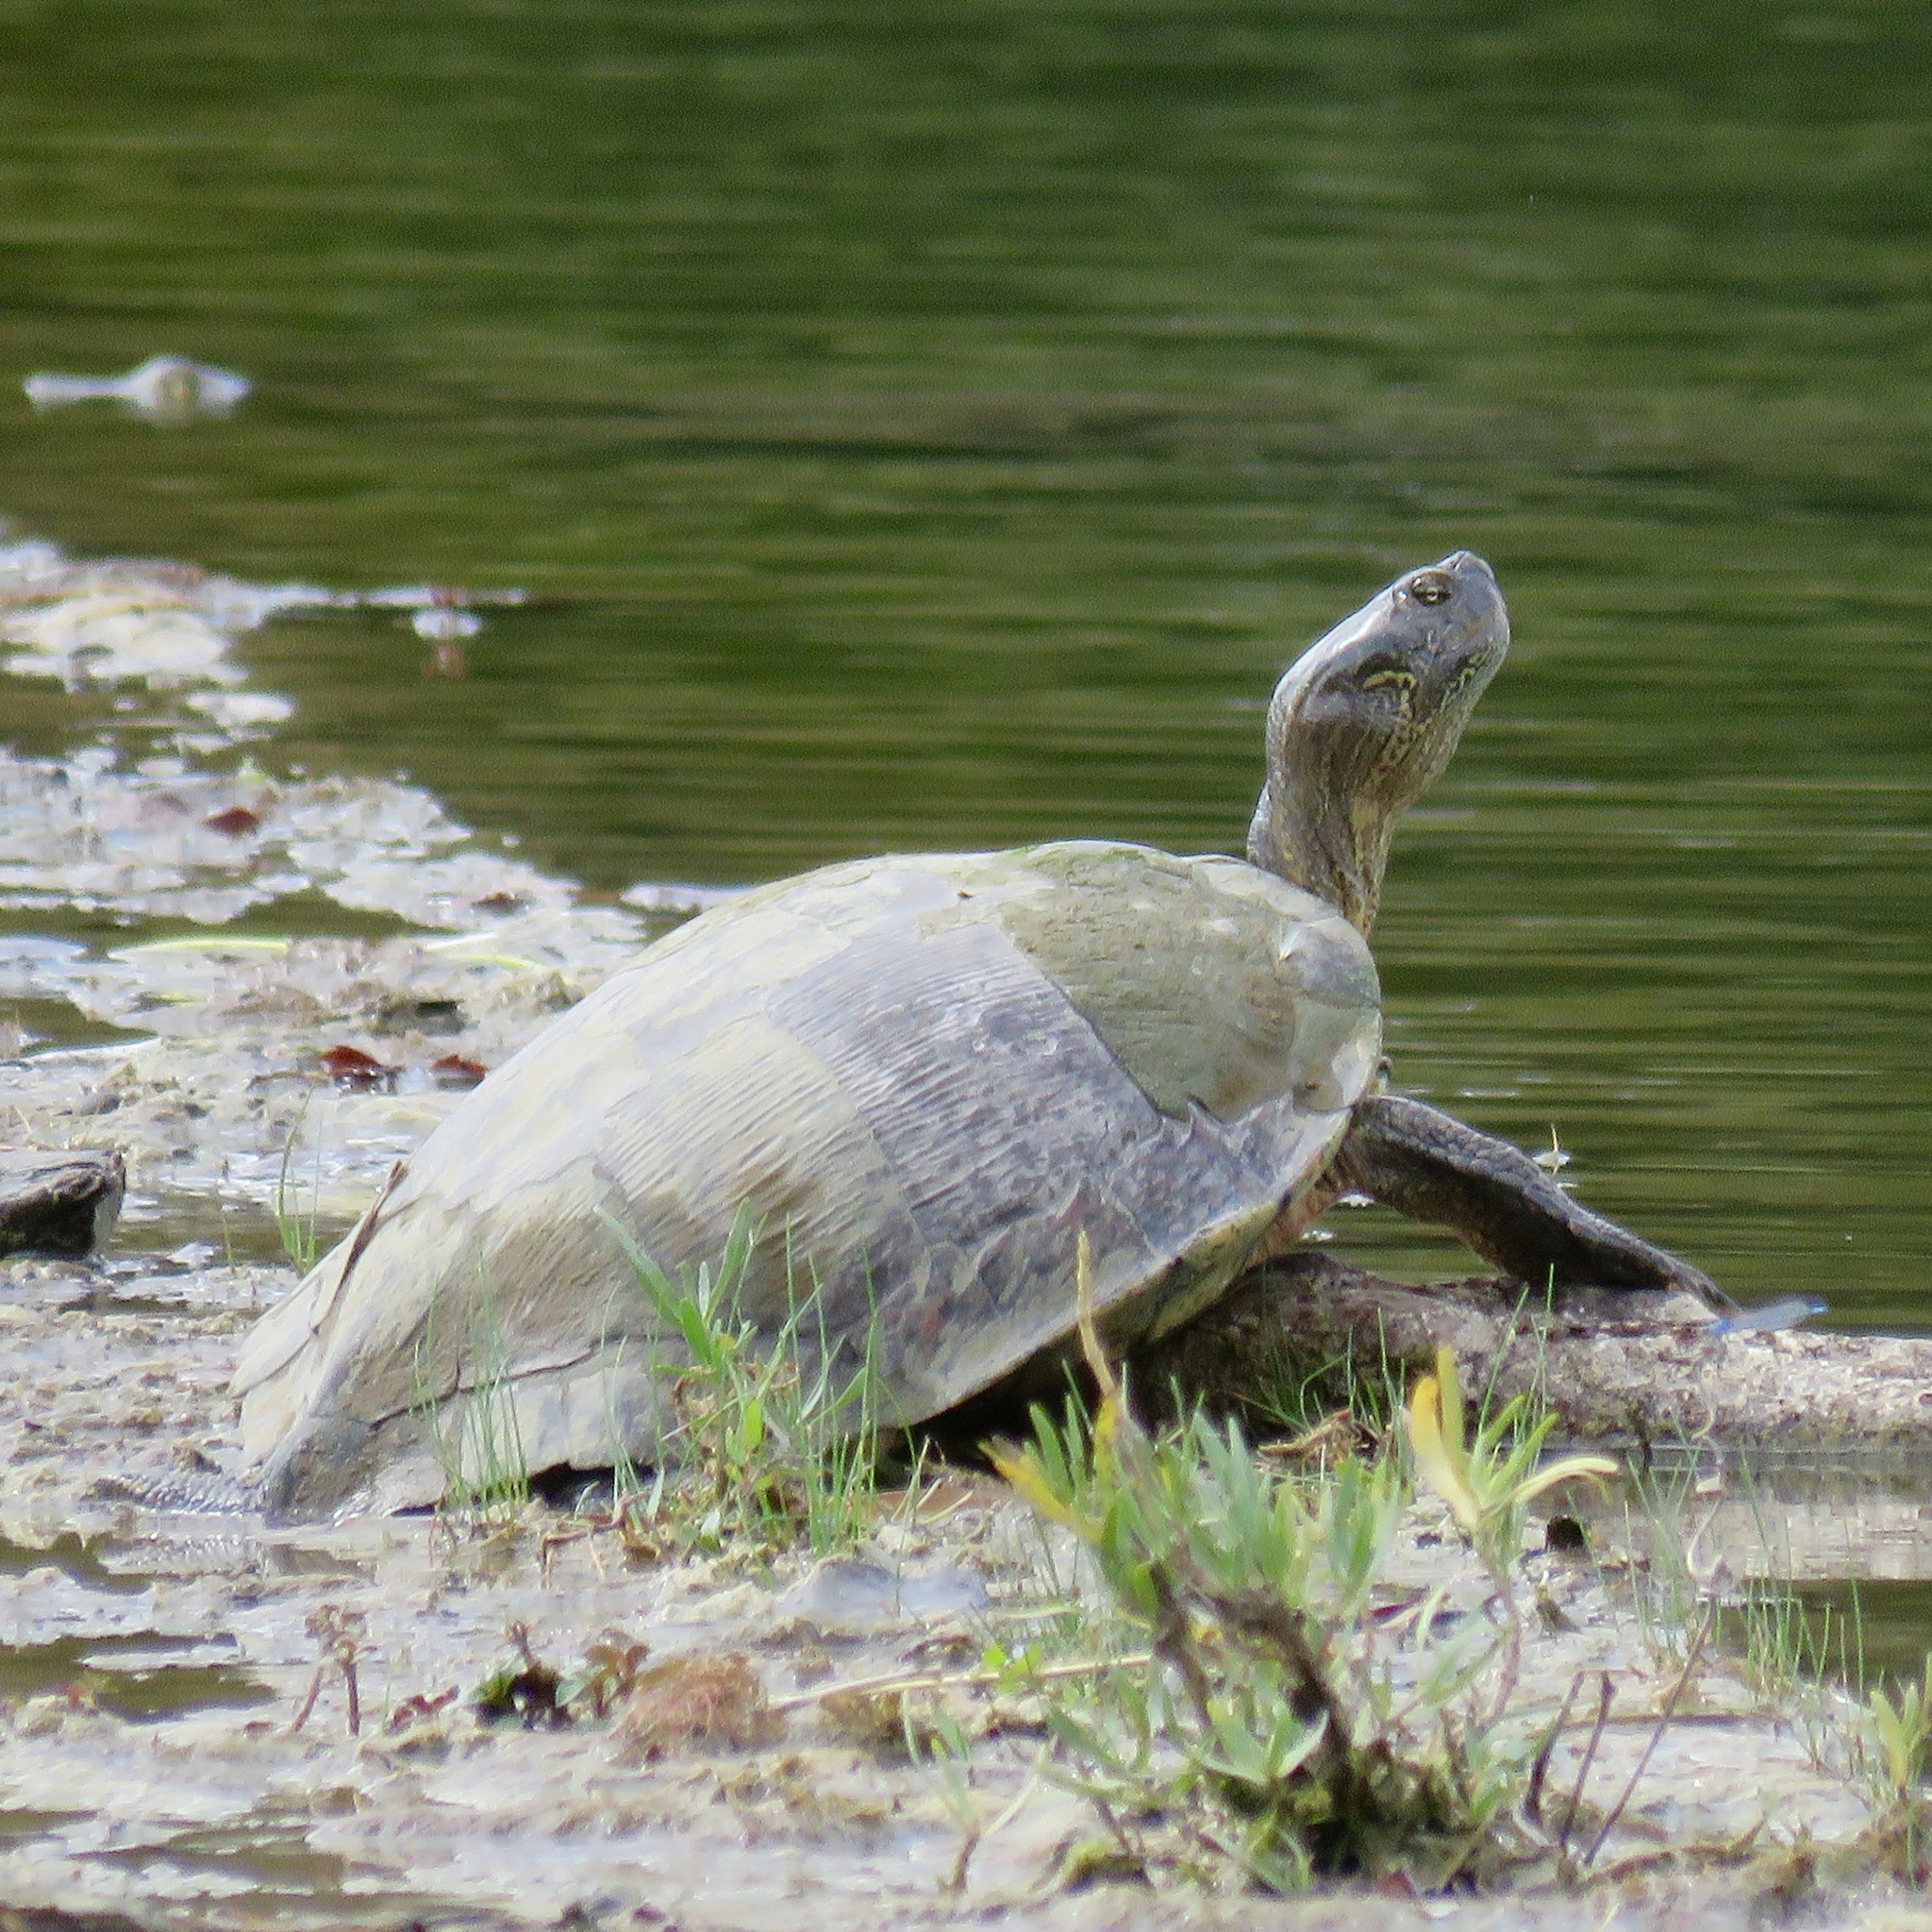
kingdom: Animalia
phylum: Chordata
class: Testudines
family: Emydidae
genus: Pseudemys
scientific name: Pseudemys texana
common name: Texas river cooter
